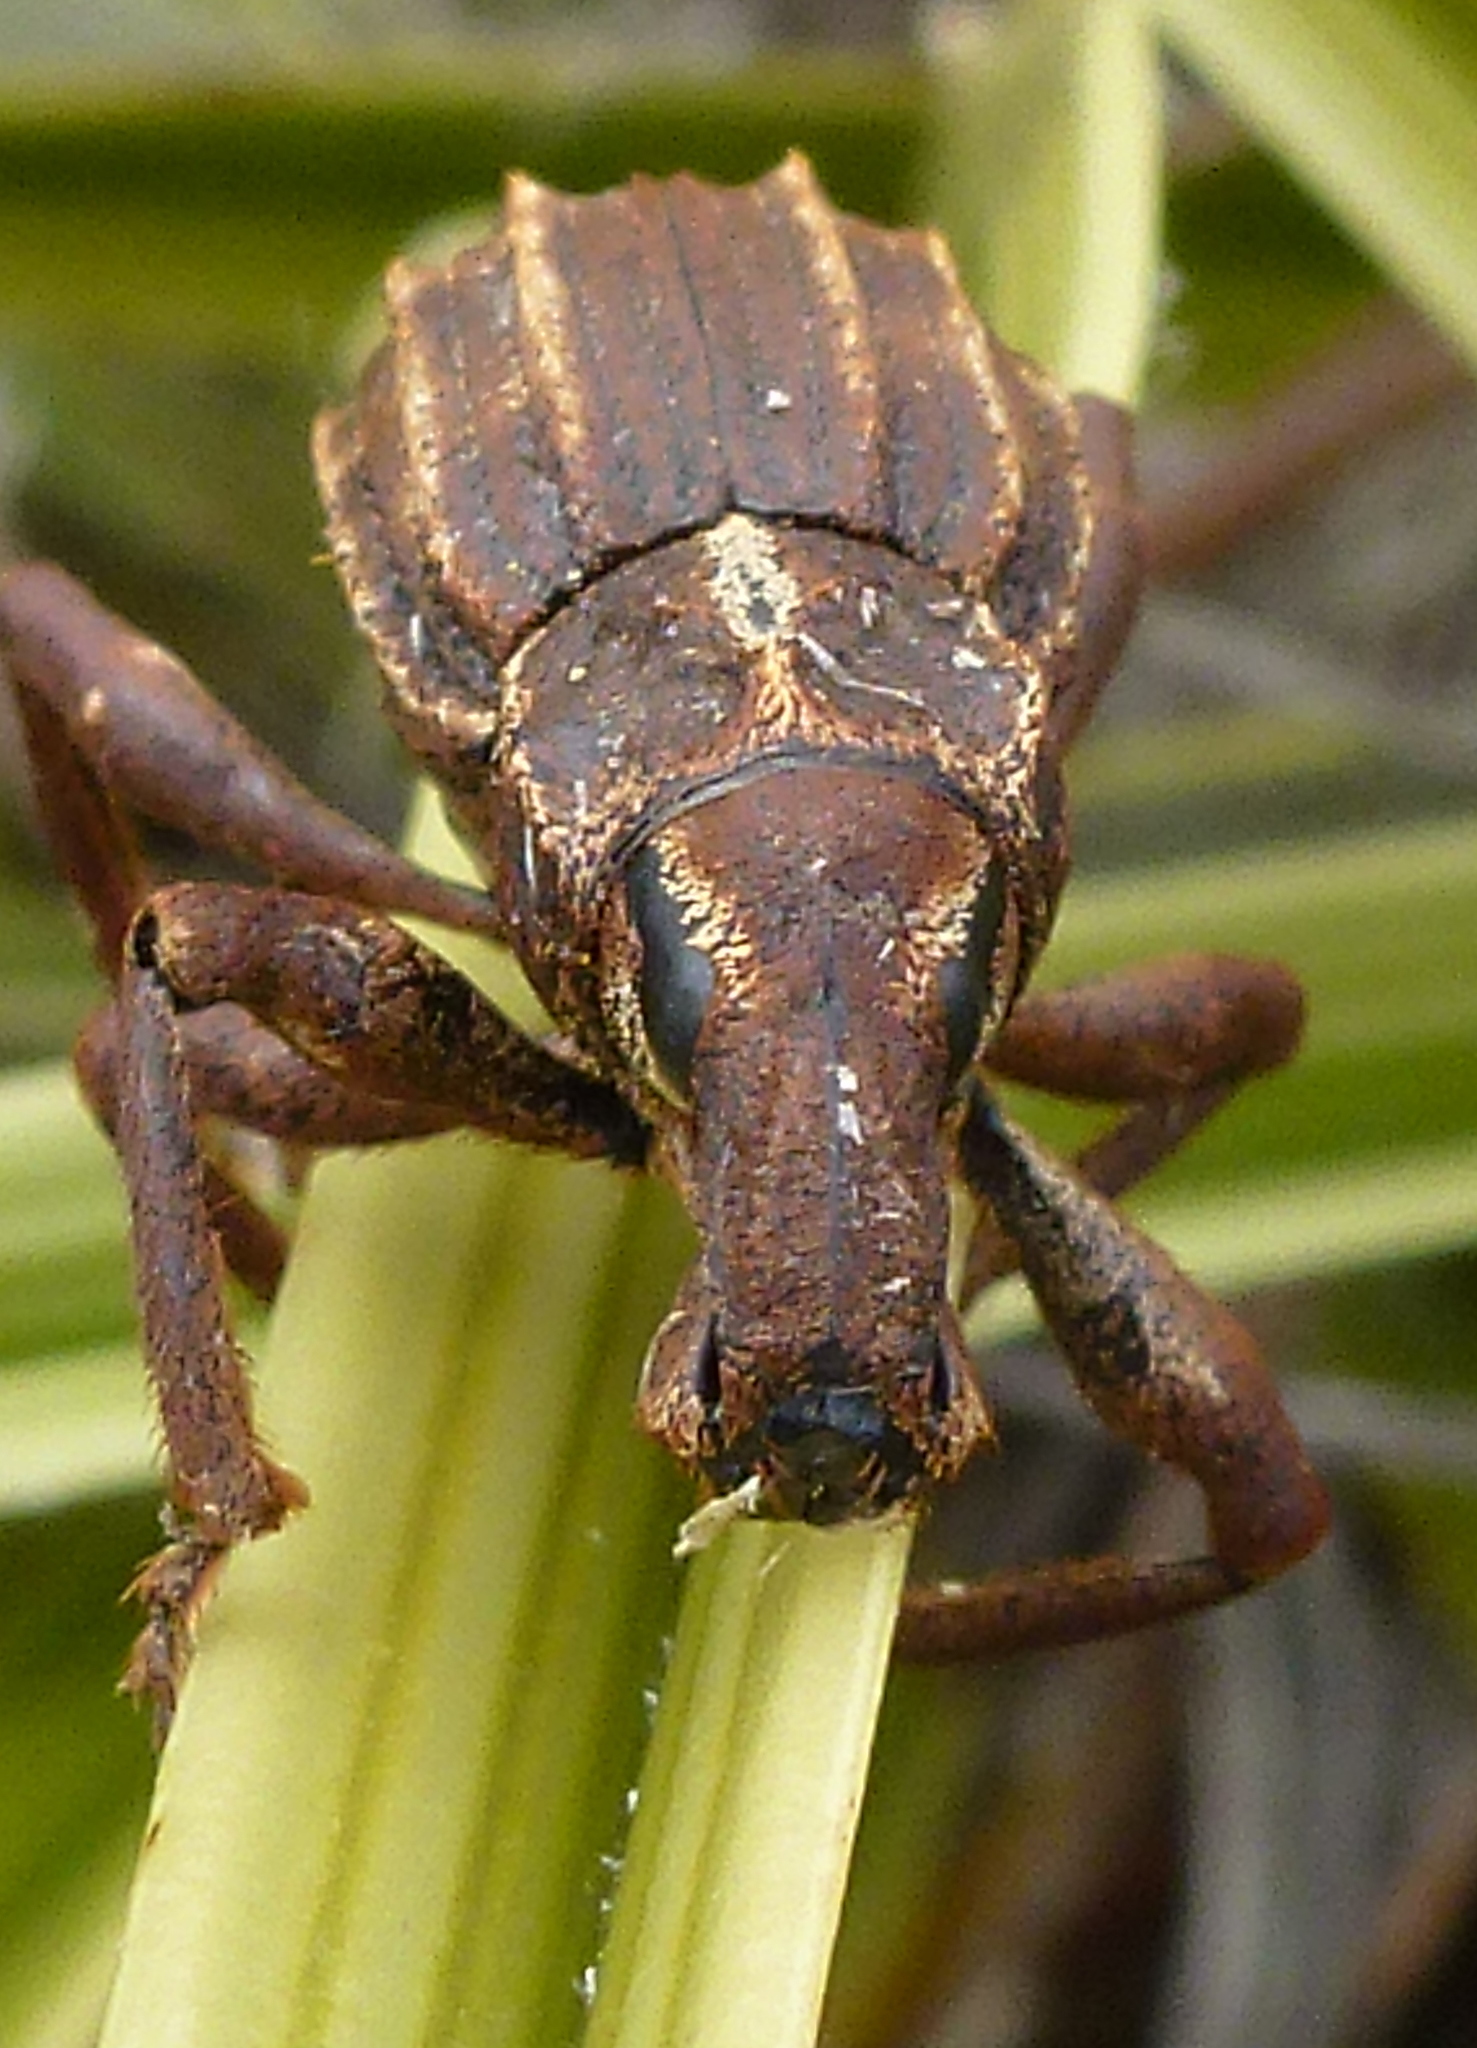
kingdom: Animalia
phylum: Arthropoda
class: Insecta
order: Coleoptera
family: Curculionidae
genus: Anagotus
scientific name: Anagotus
